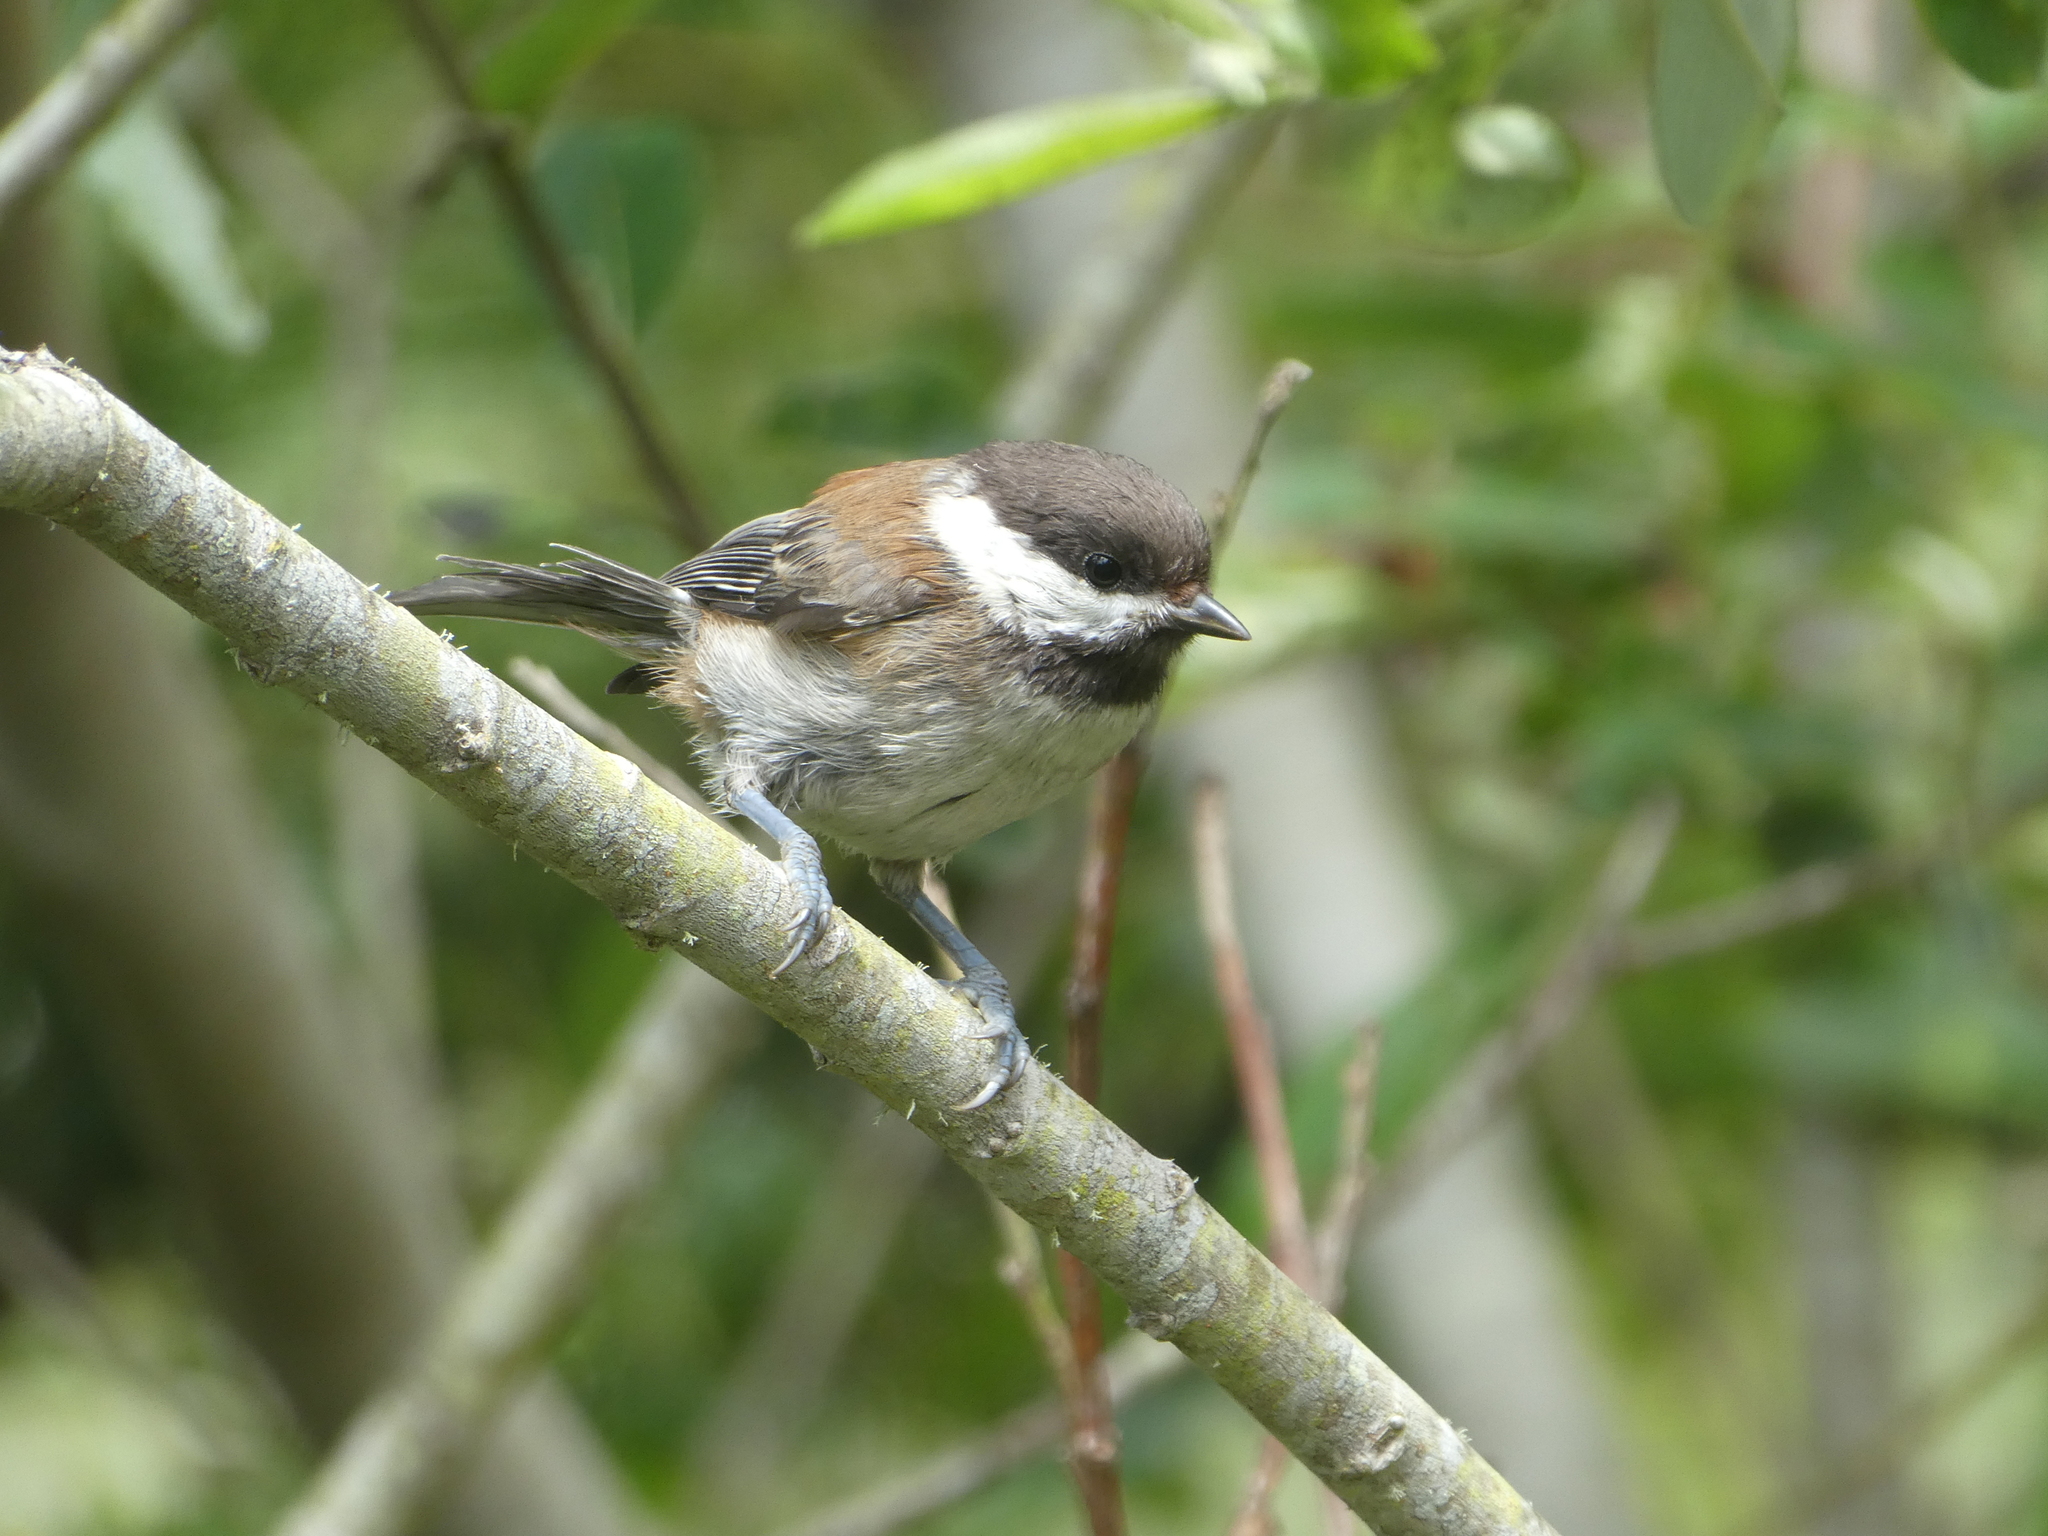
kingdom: Animalia
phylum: Chordata
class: Aves
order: Passeriformes
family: Paridae
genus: Poecile
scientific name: Poecile rufescens
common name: Chestnut-backed chickadee
